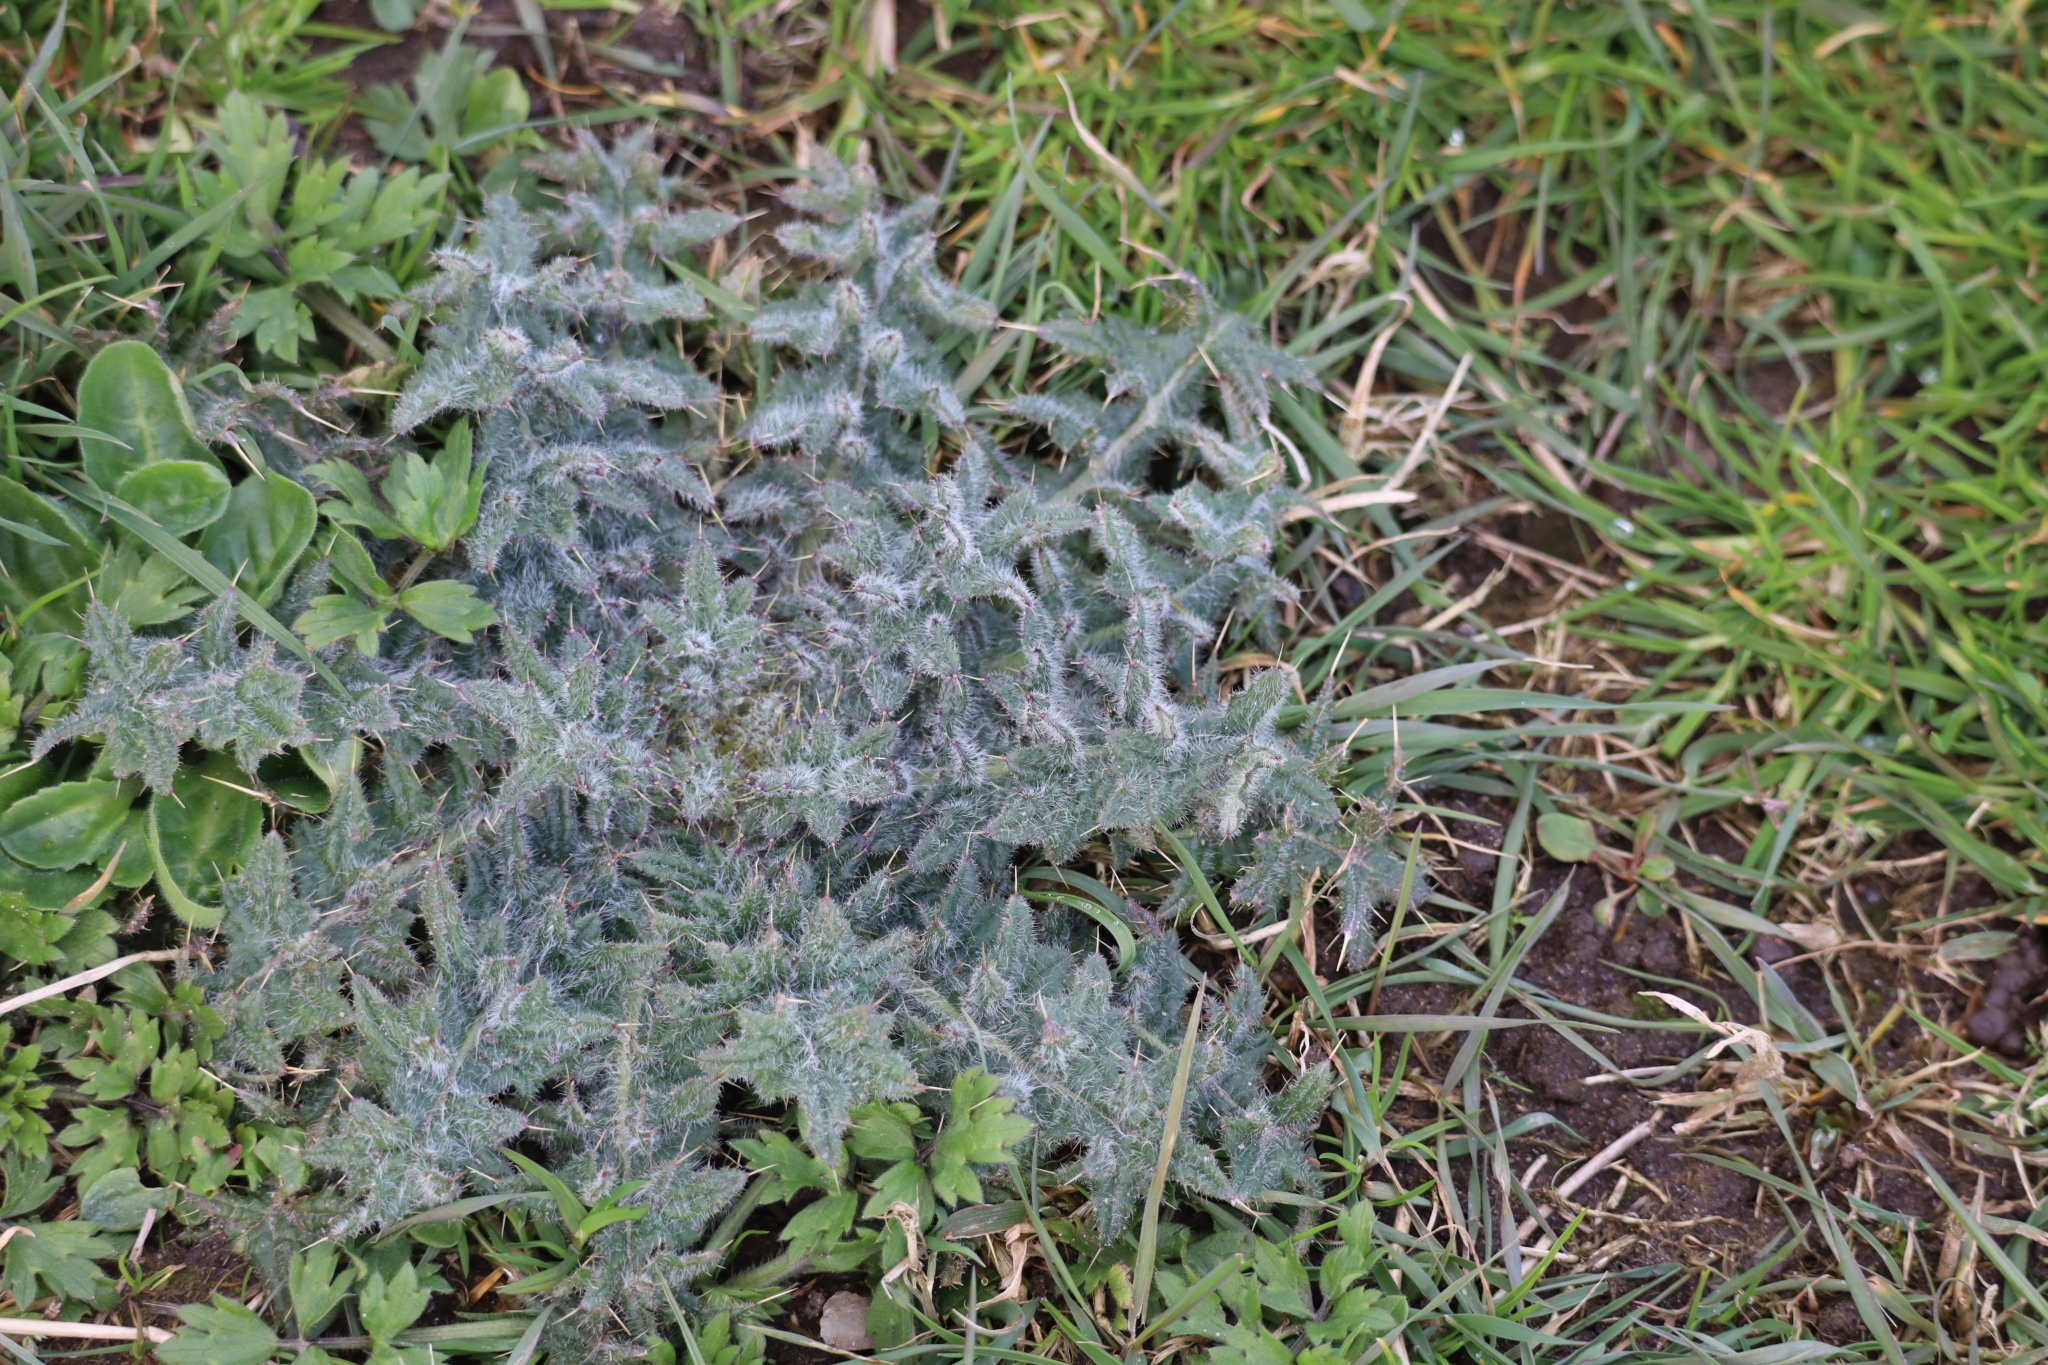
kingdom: Plantae
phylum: Tracheophyta
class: Magnoliopsida
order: Asterales
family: Asteraceae
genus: Cirsium
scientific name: Cirsium vulgare
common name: Bull thistle
